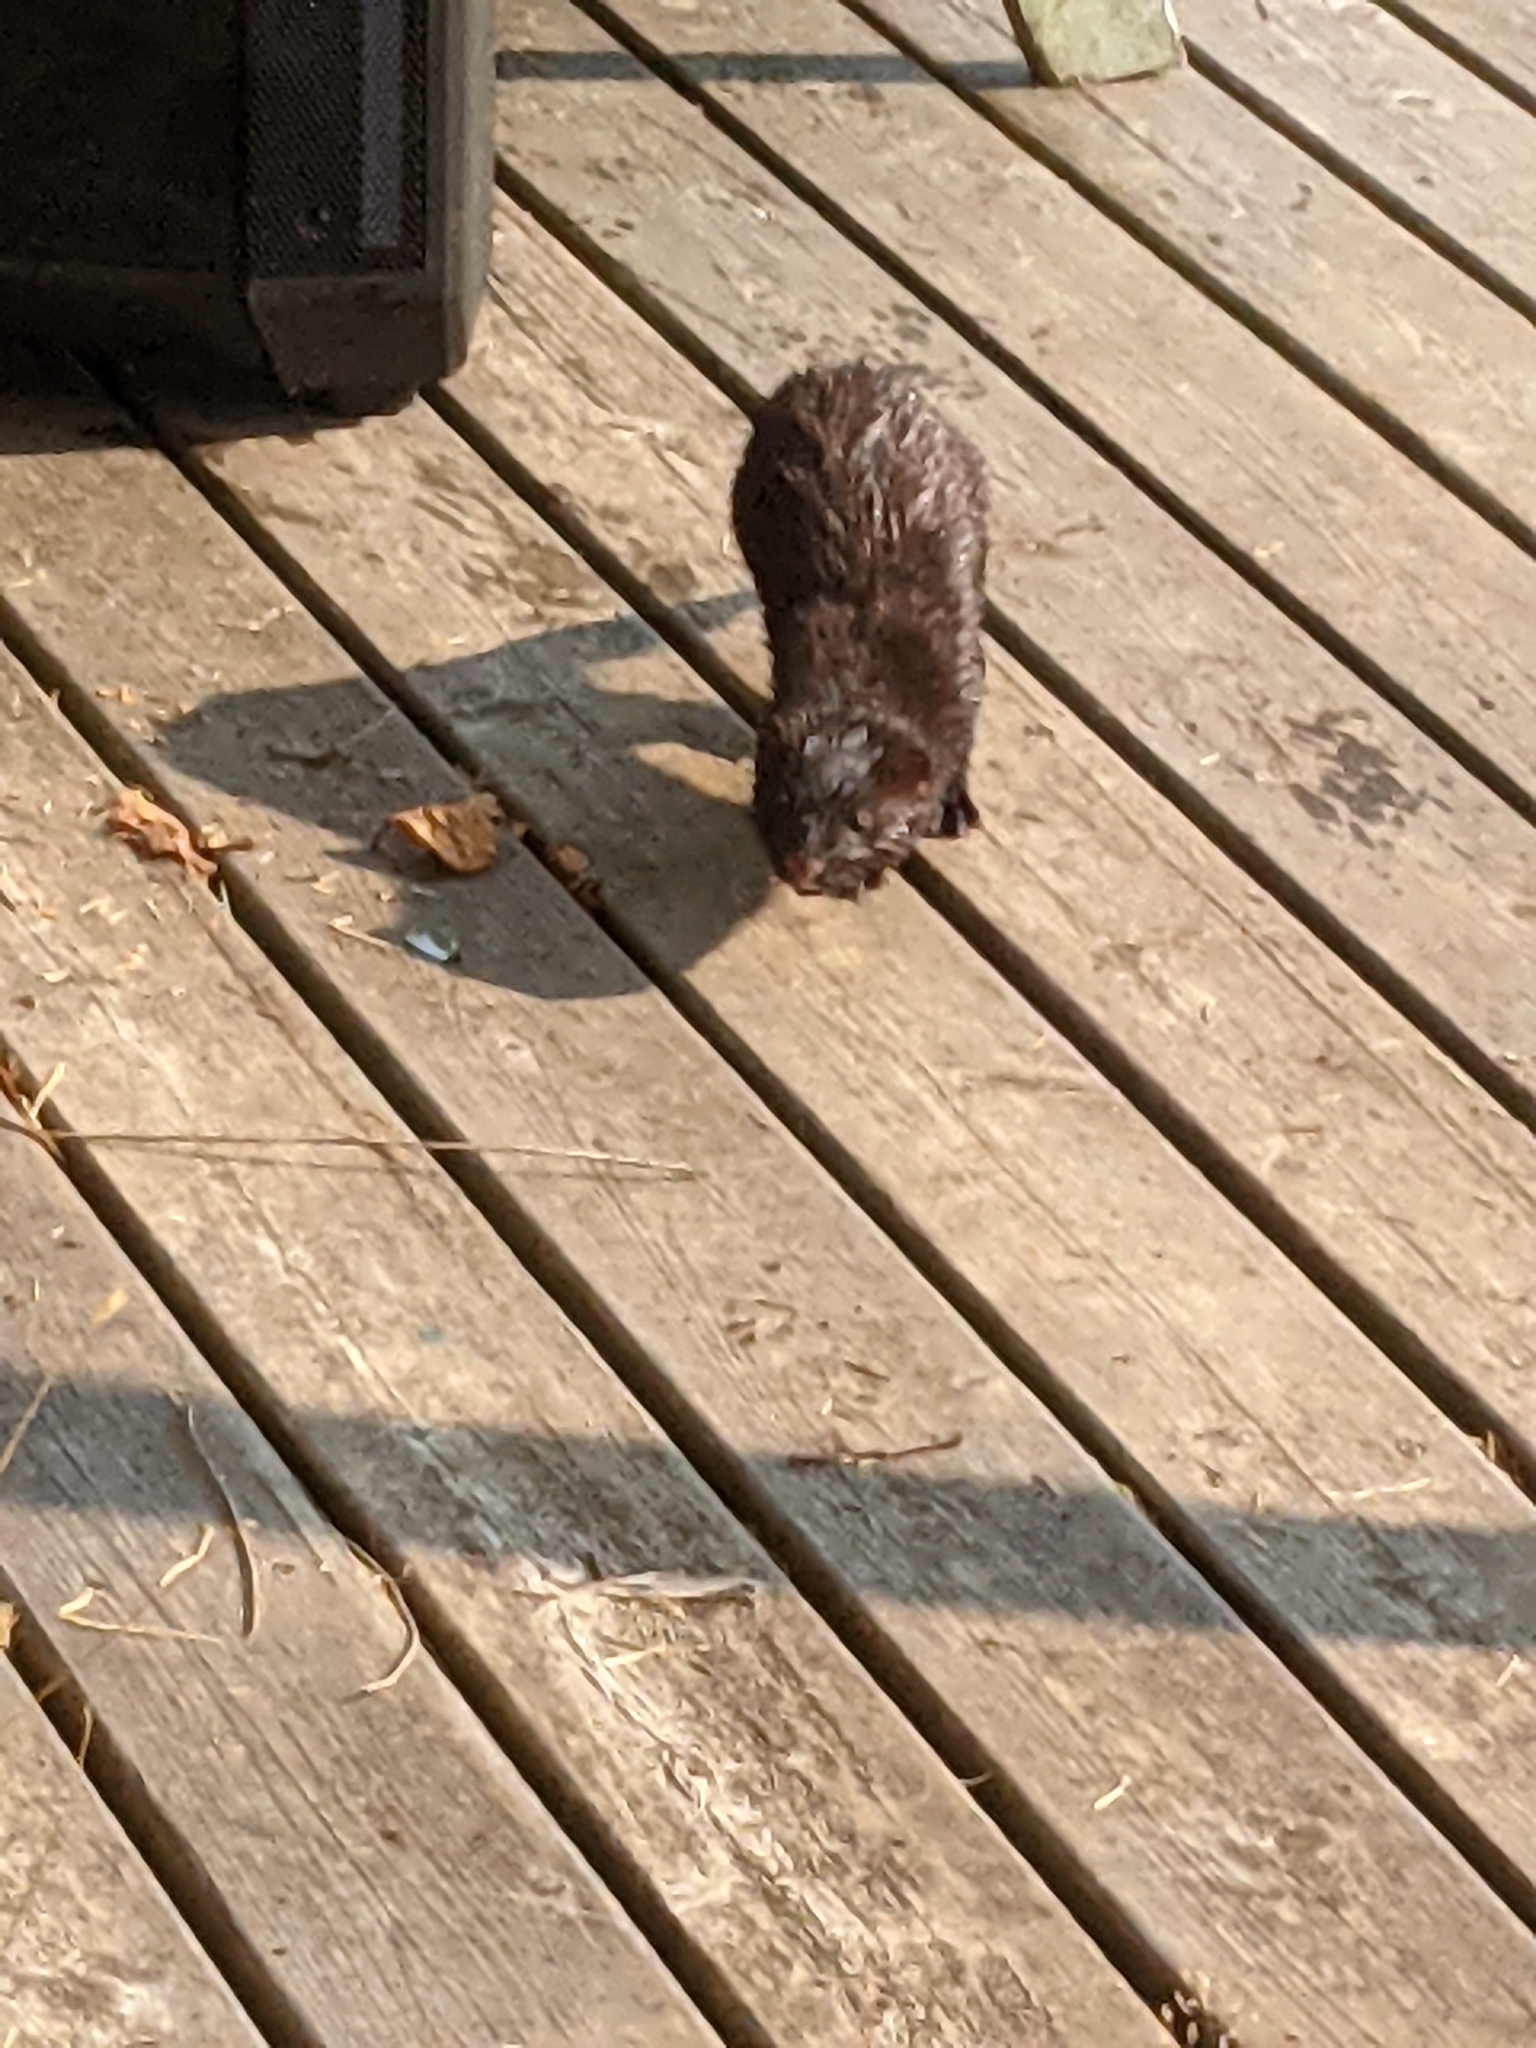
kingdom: Animalia
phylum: Chordata
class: Mammalia
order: Carnivora
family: Mustelidae
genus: Mustela
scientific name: Mustela
